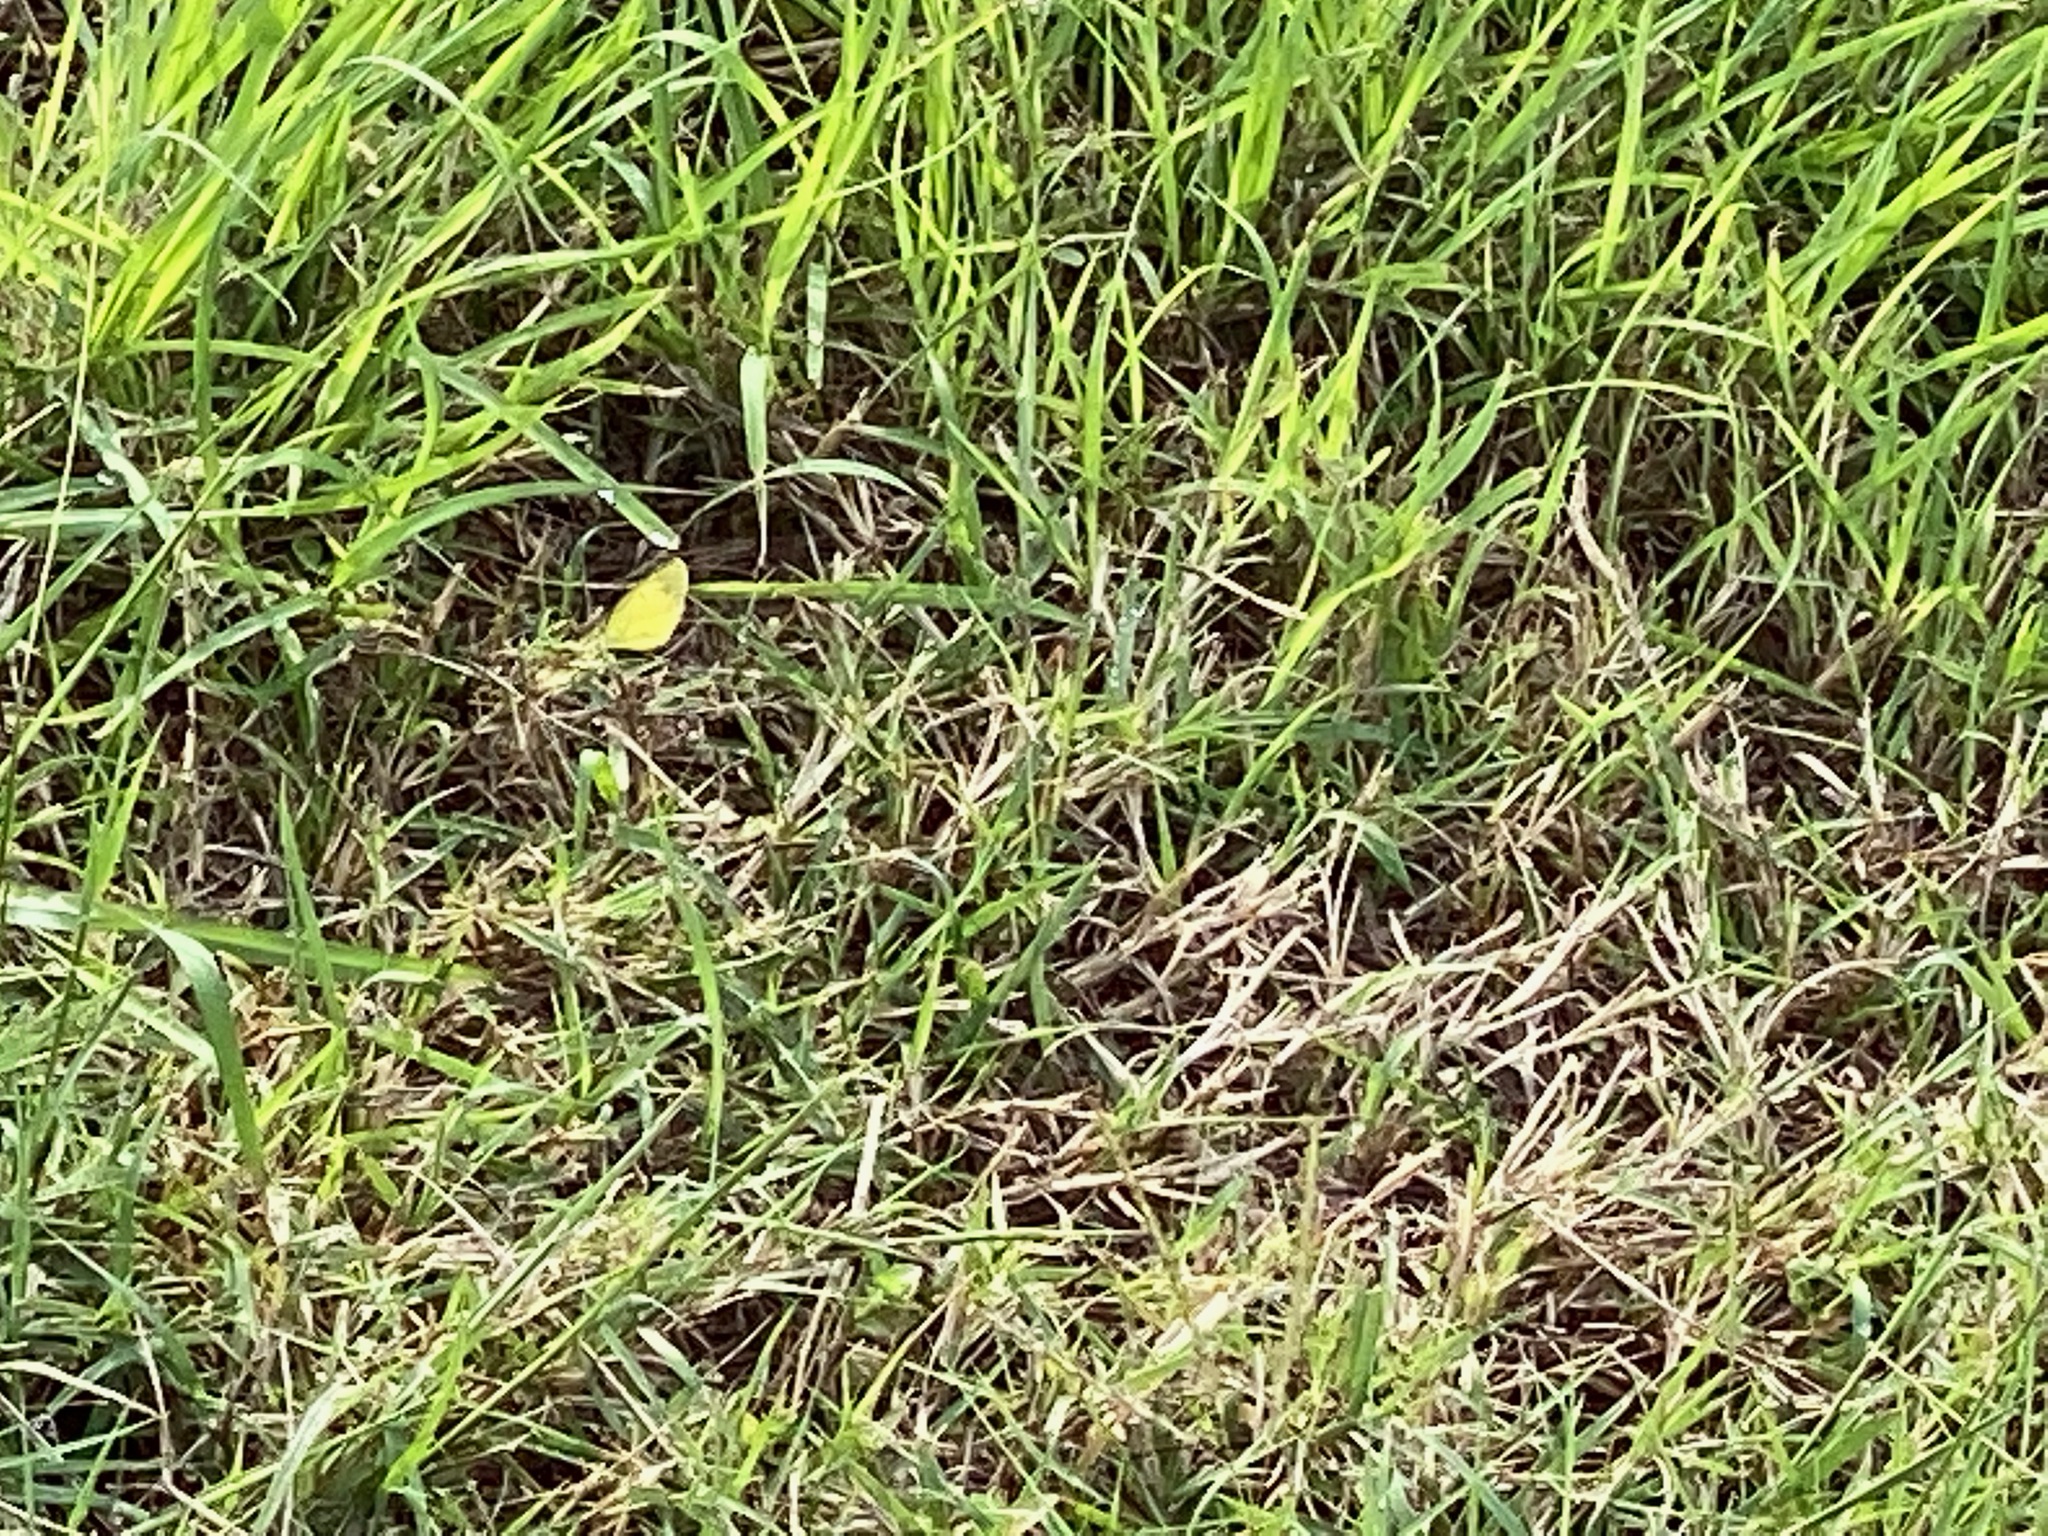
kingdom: Plantae
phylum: Tracheophyta
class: Liliopsida
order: Poales
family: Poaceae
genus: Cynodon
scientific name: Cynodon dactylon
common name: Bermuda grass
